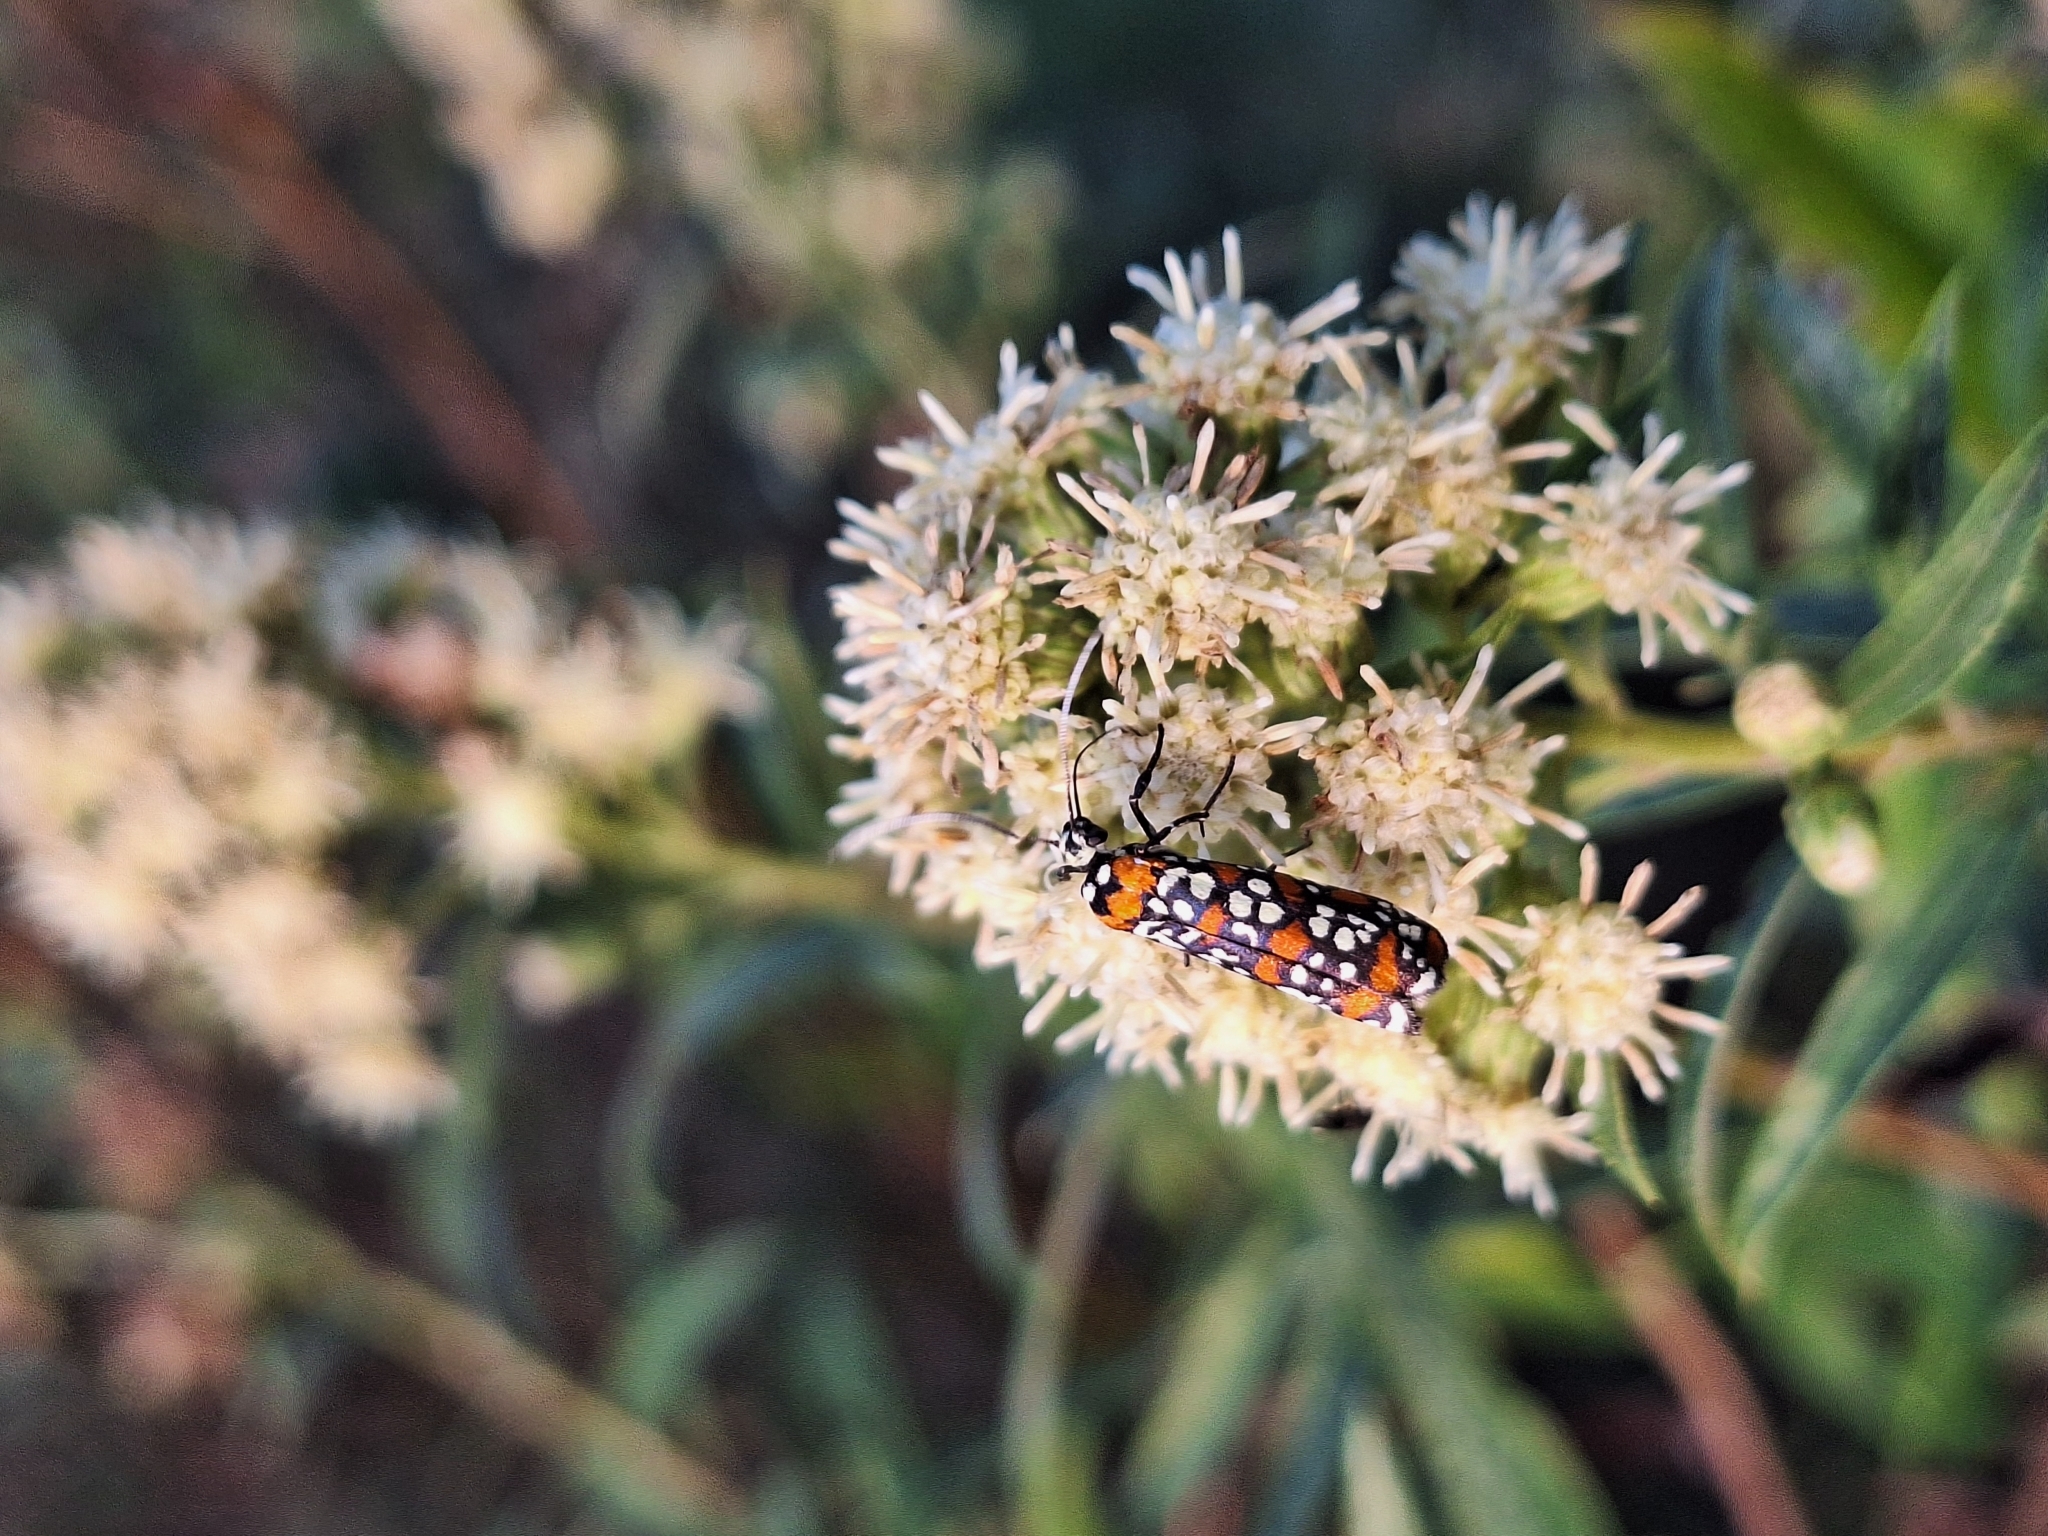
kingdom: Animalia
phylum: Arthropoda
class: Insecta
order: Lepidoptera
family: Attevidae
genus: Atteva
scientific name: Atteva punctella
